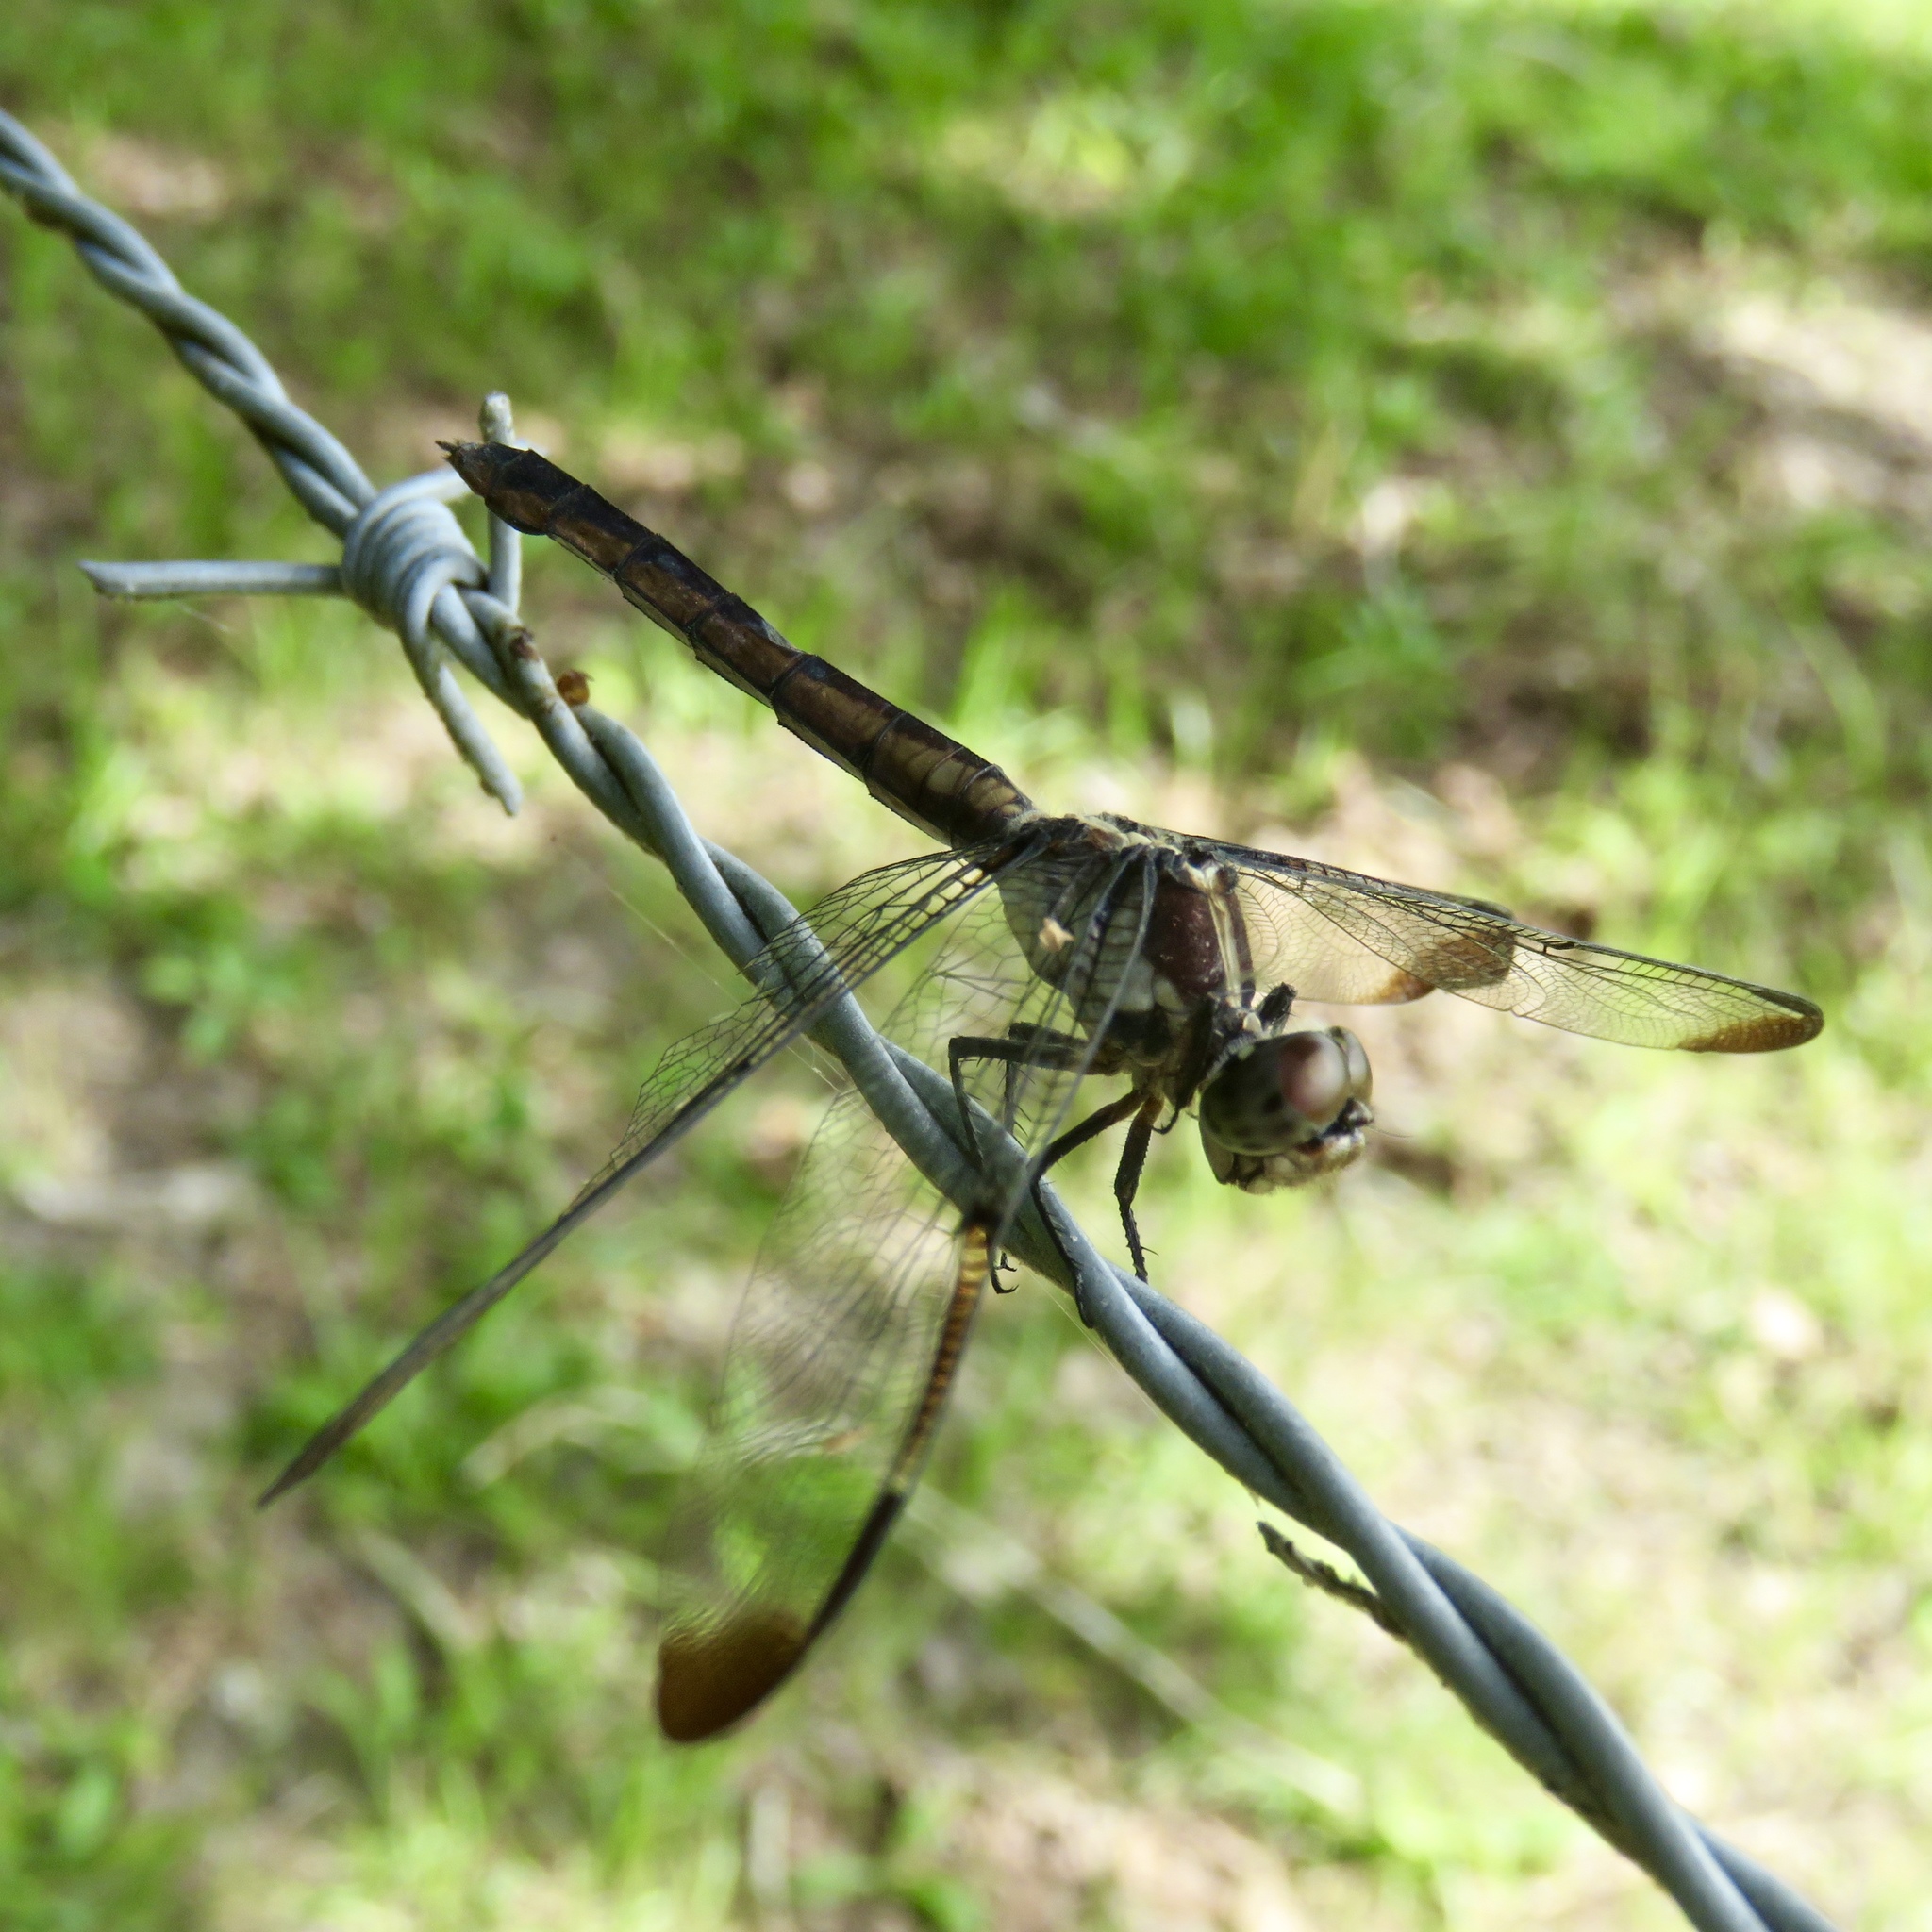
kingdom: Animalia
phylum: Arthropoda
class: Insecta
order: Odonata
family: Libellulidae
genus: Libellula
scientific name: Libellula incesta
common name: Slaty skimmer
